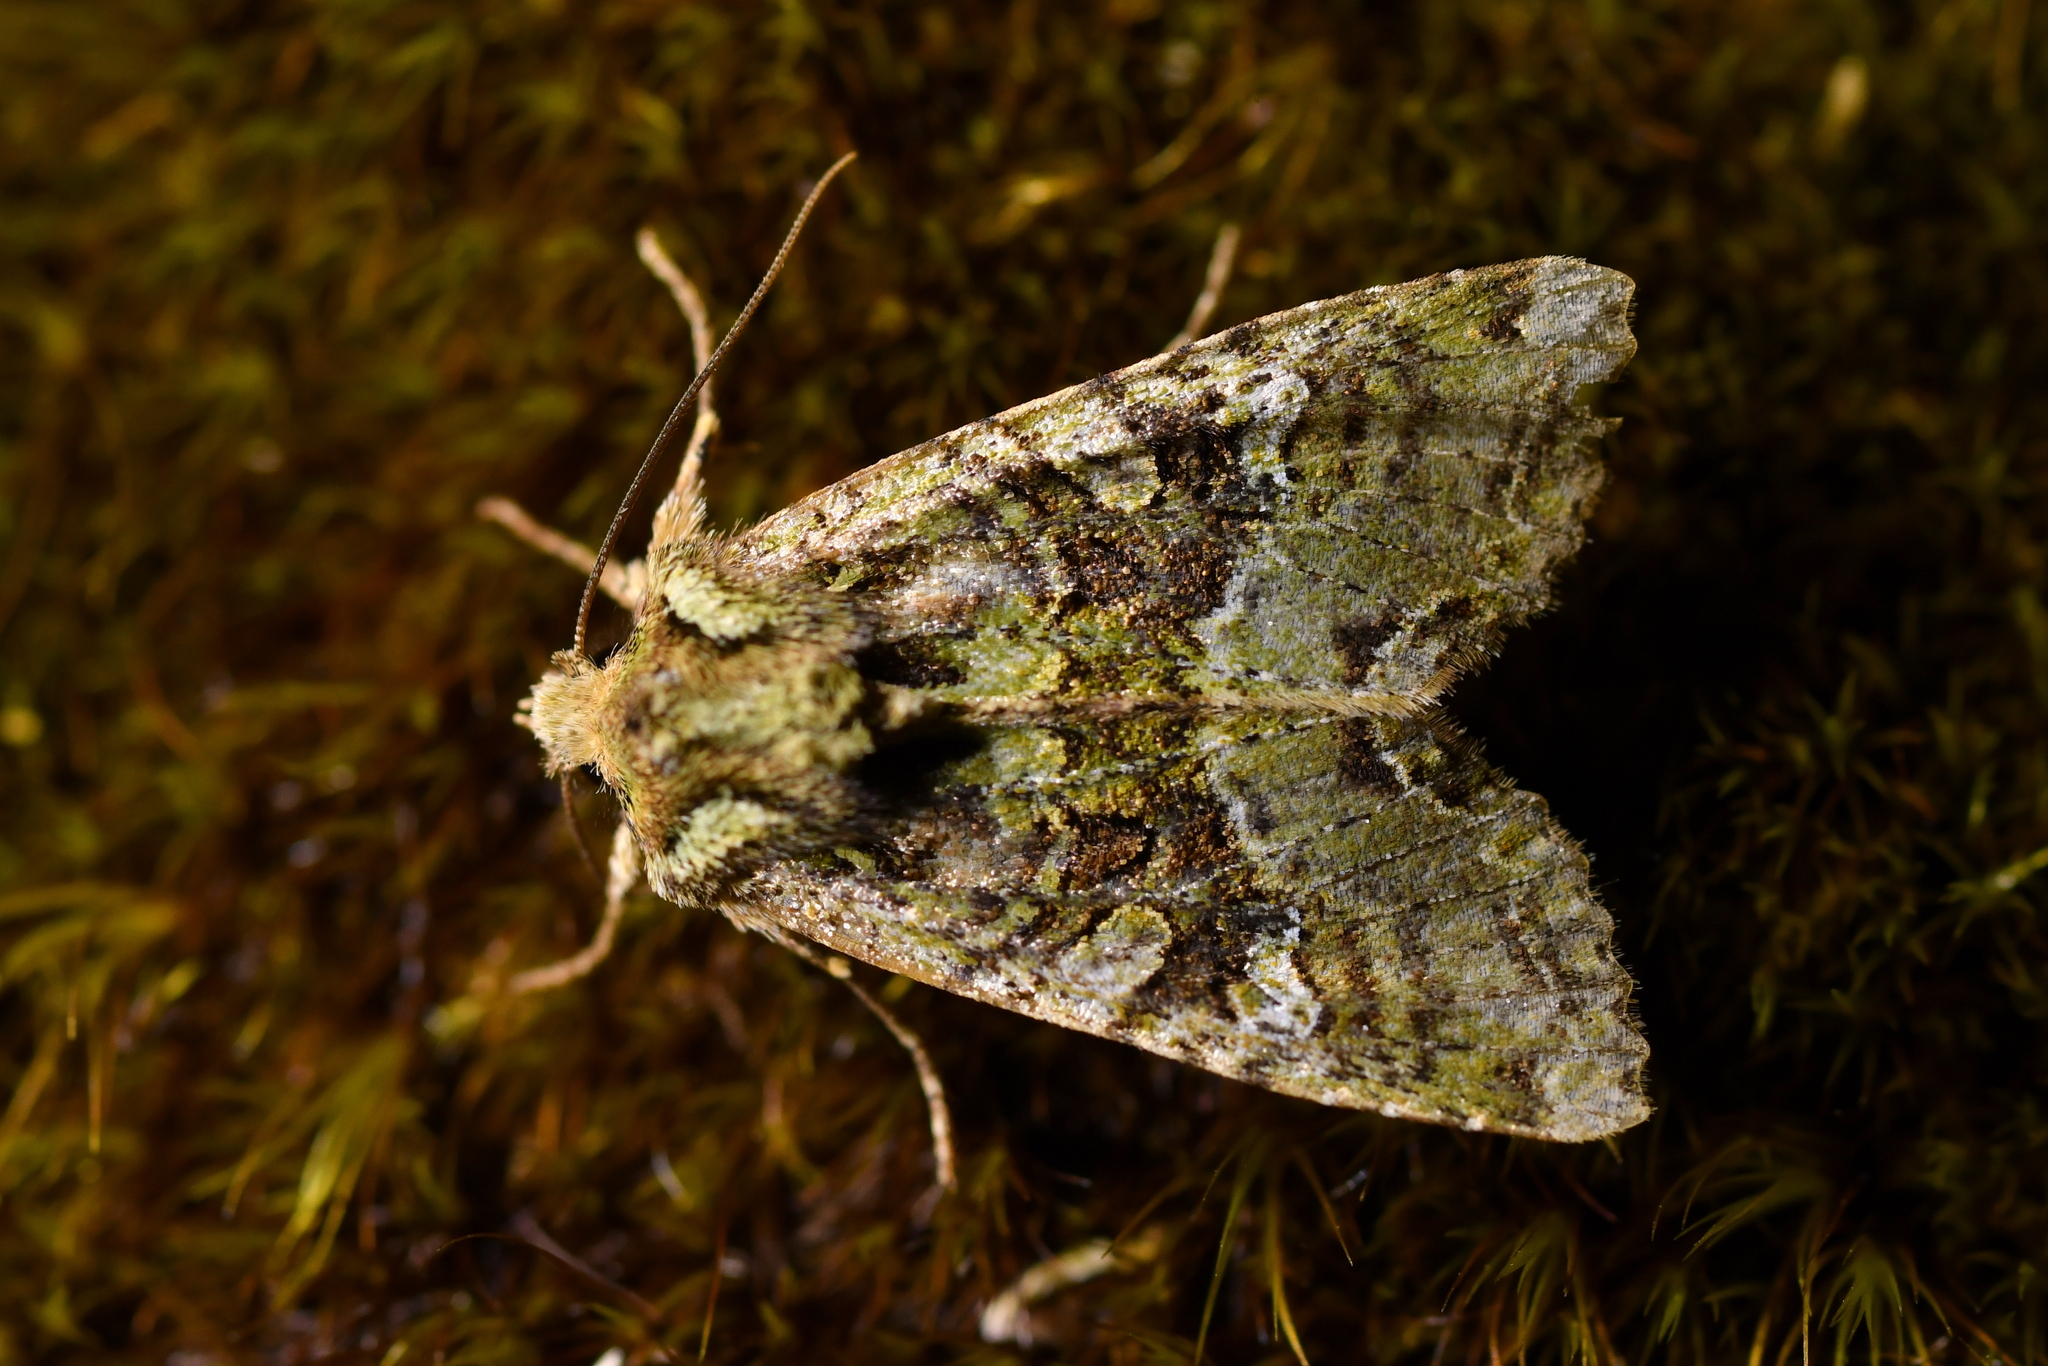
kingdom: Animalia
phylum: Arthropoda
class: Insecta
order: Lepidoptera
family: Noctuidae
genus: Meterana
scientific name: Meterana
